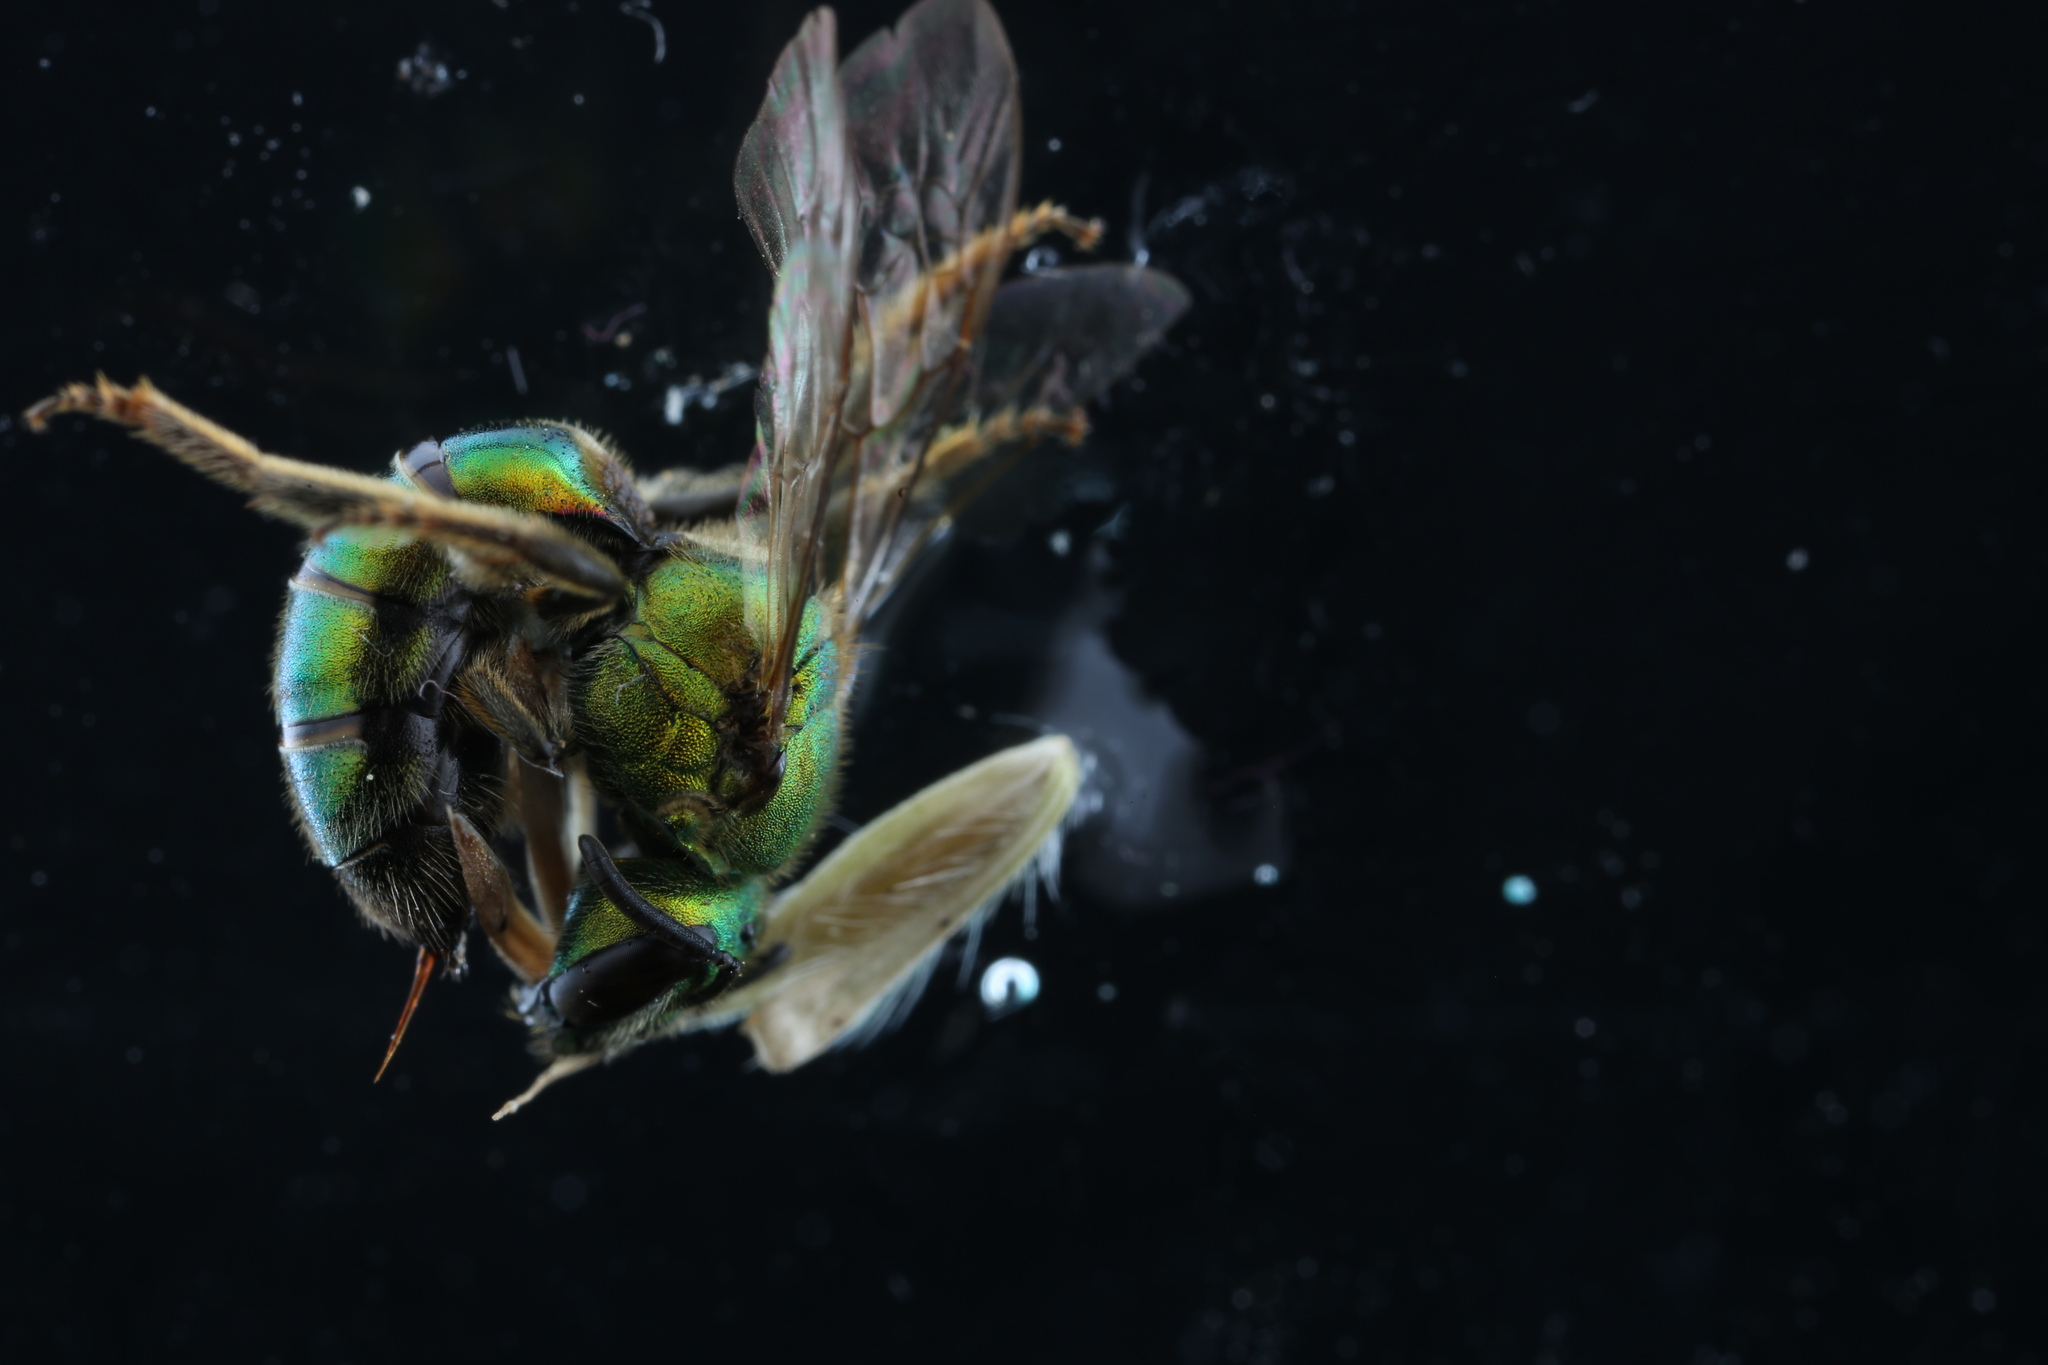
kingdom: Animalia
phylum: Arthropoda
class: Insecta
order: Hymenoptera
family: Halictidae
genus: Augochlora
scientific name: Augochlora pura
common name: Pure green sweat bee
